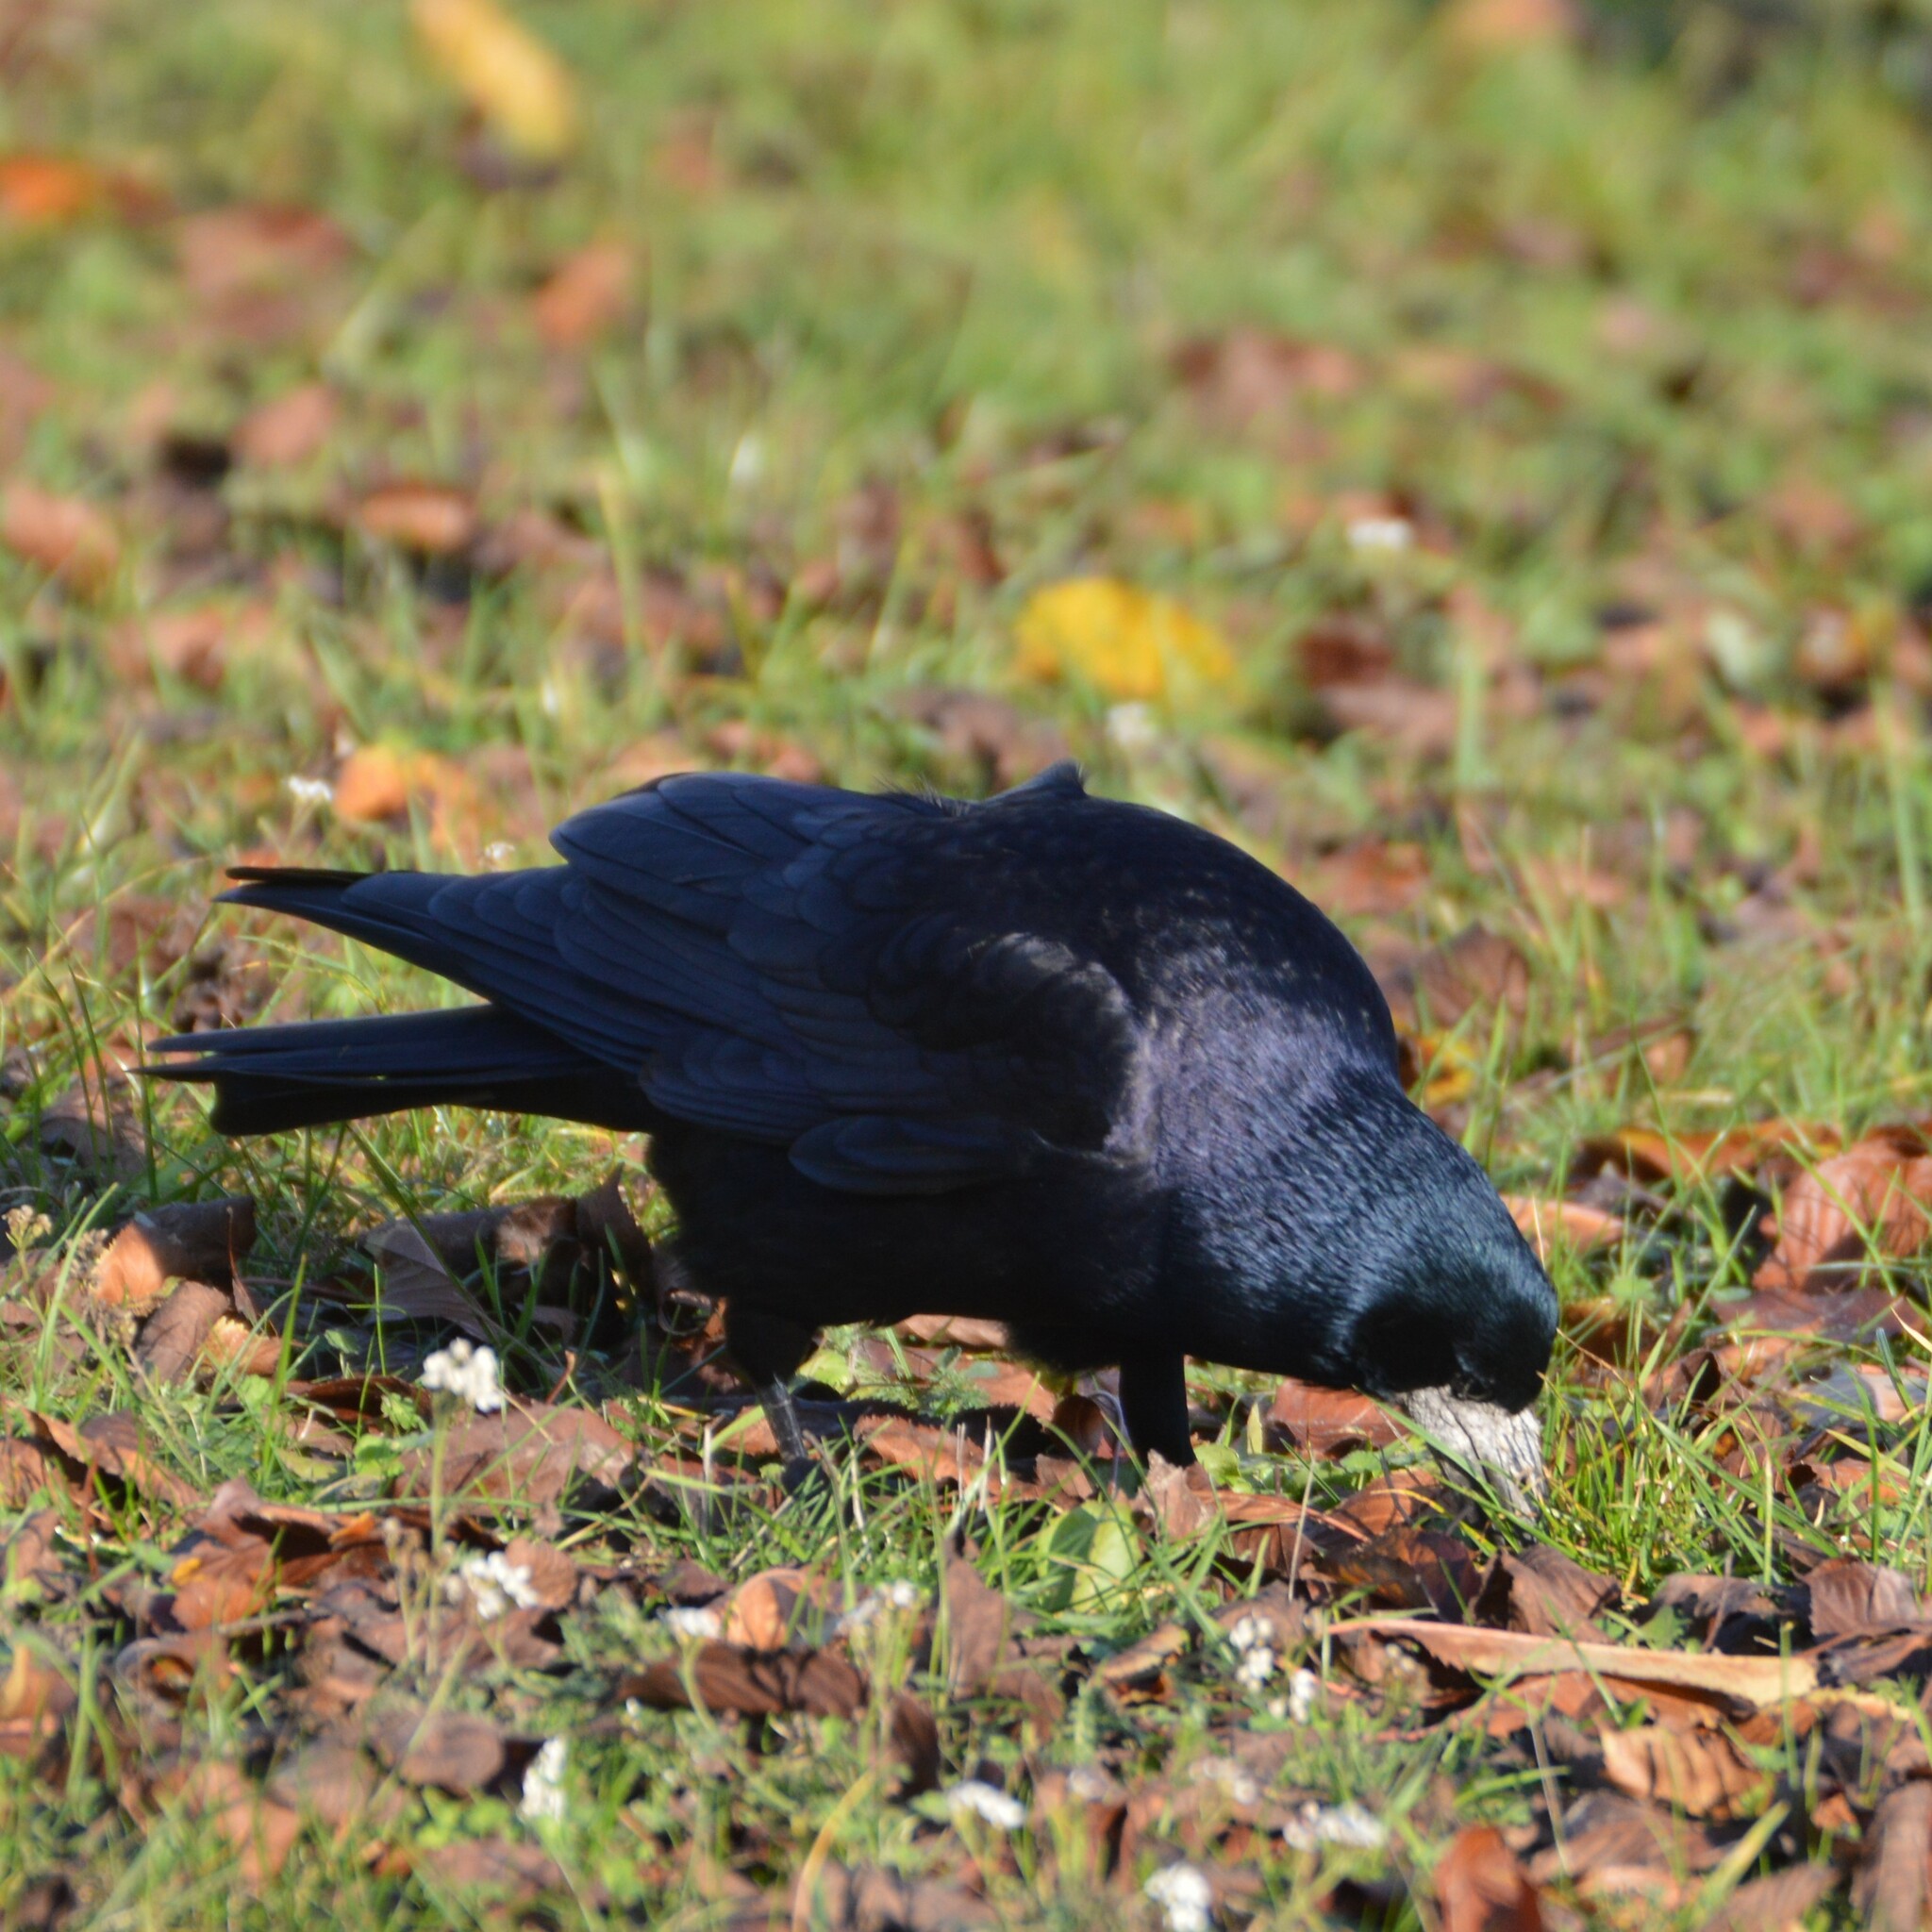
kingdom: Animalia
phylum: Chordata
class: Aves
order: Passeriformes
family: Corvidae
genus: Corvus
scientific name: Corvus frugilegus
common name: Rook
